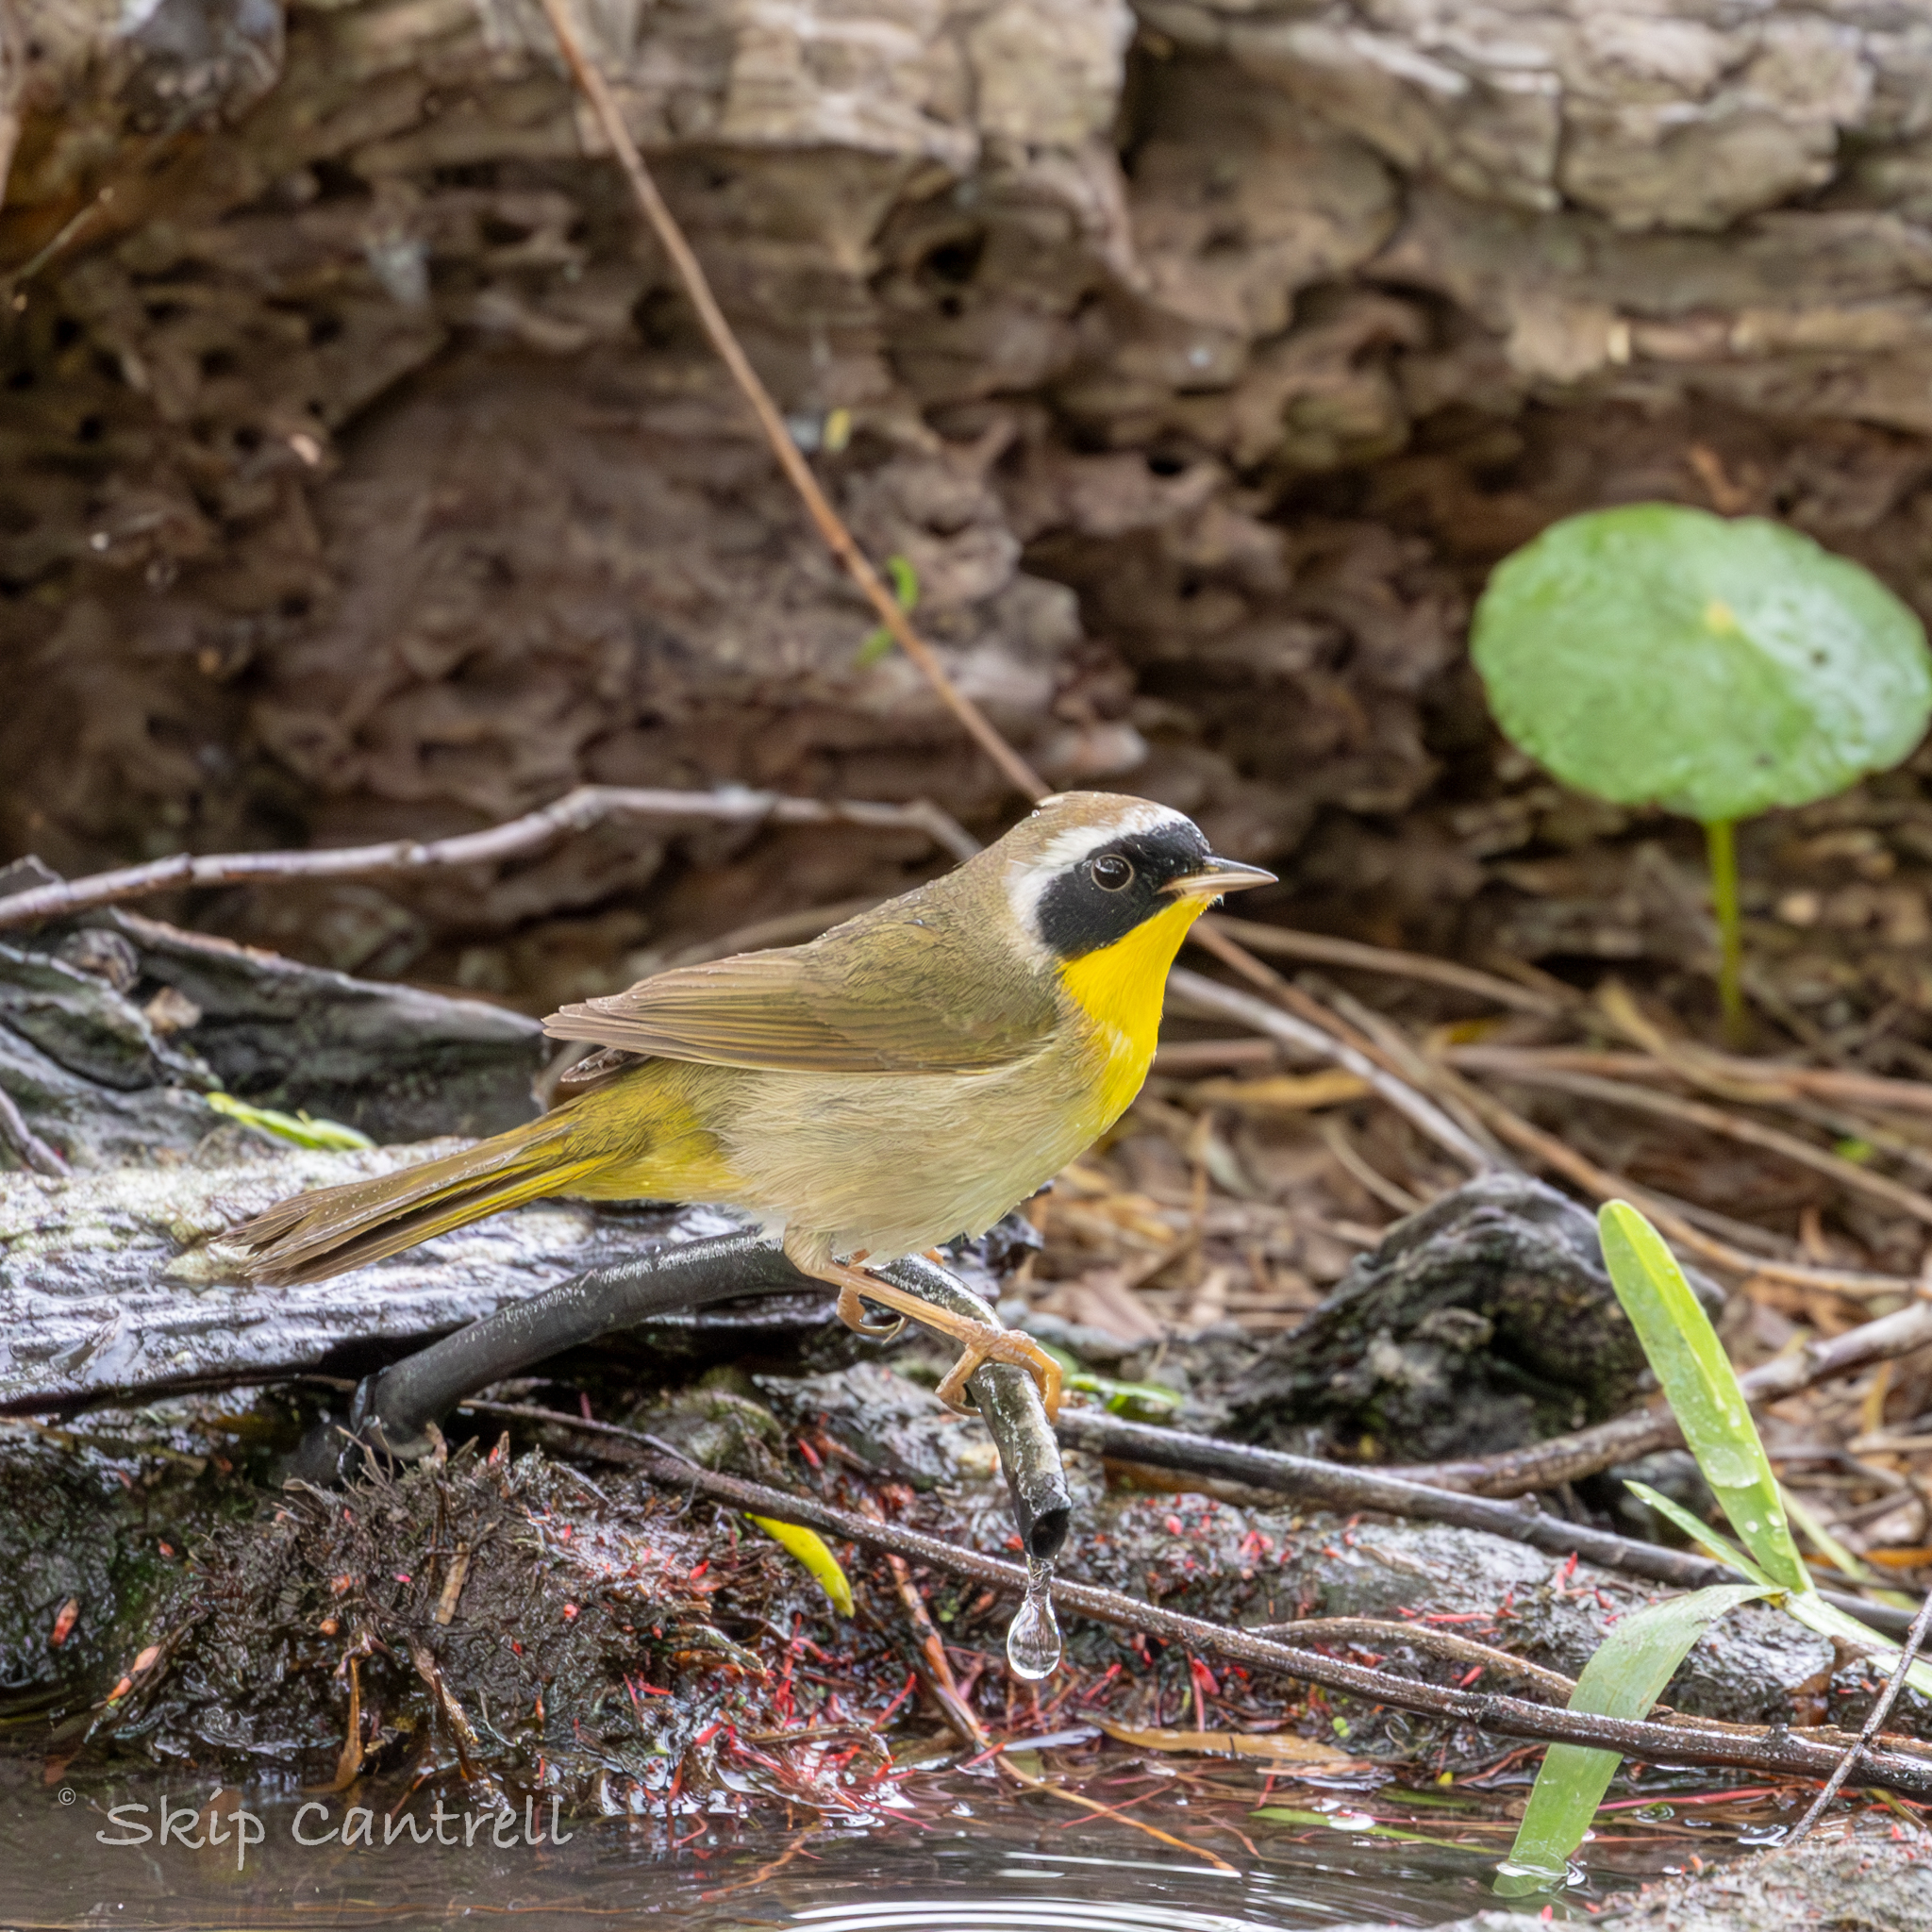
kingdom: Animalia
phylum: Chordata
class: Aves
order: Passeriformes
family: Parulidae
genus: Geothlypis
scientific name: Geothlypis trichas
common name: Common yellowthroat
